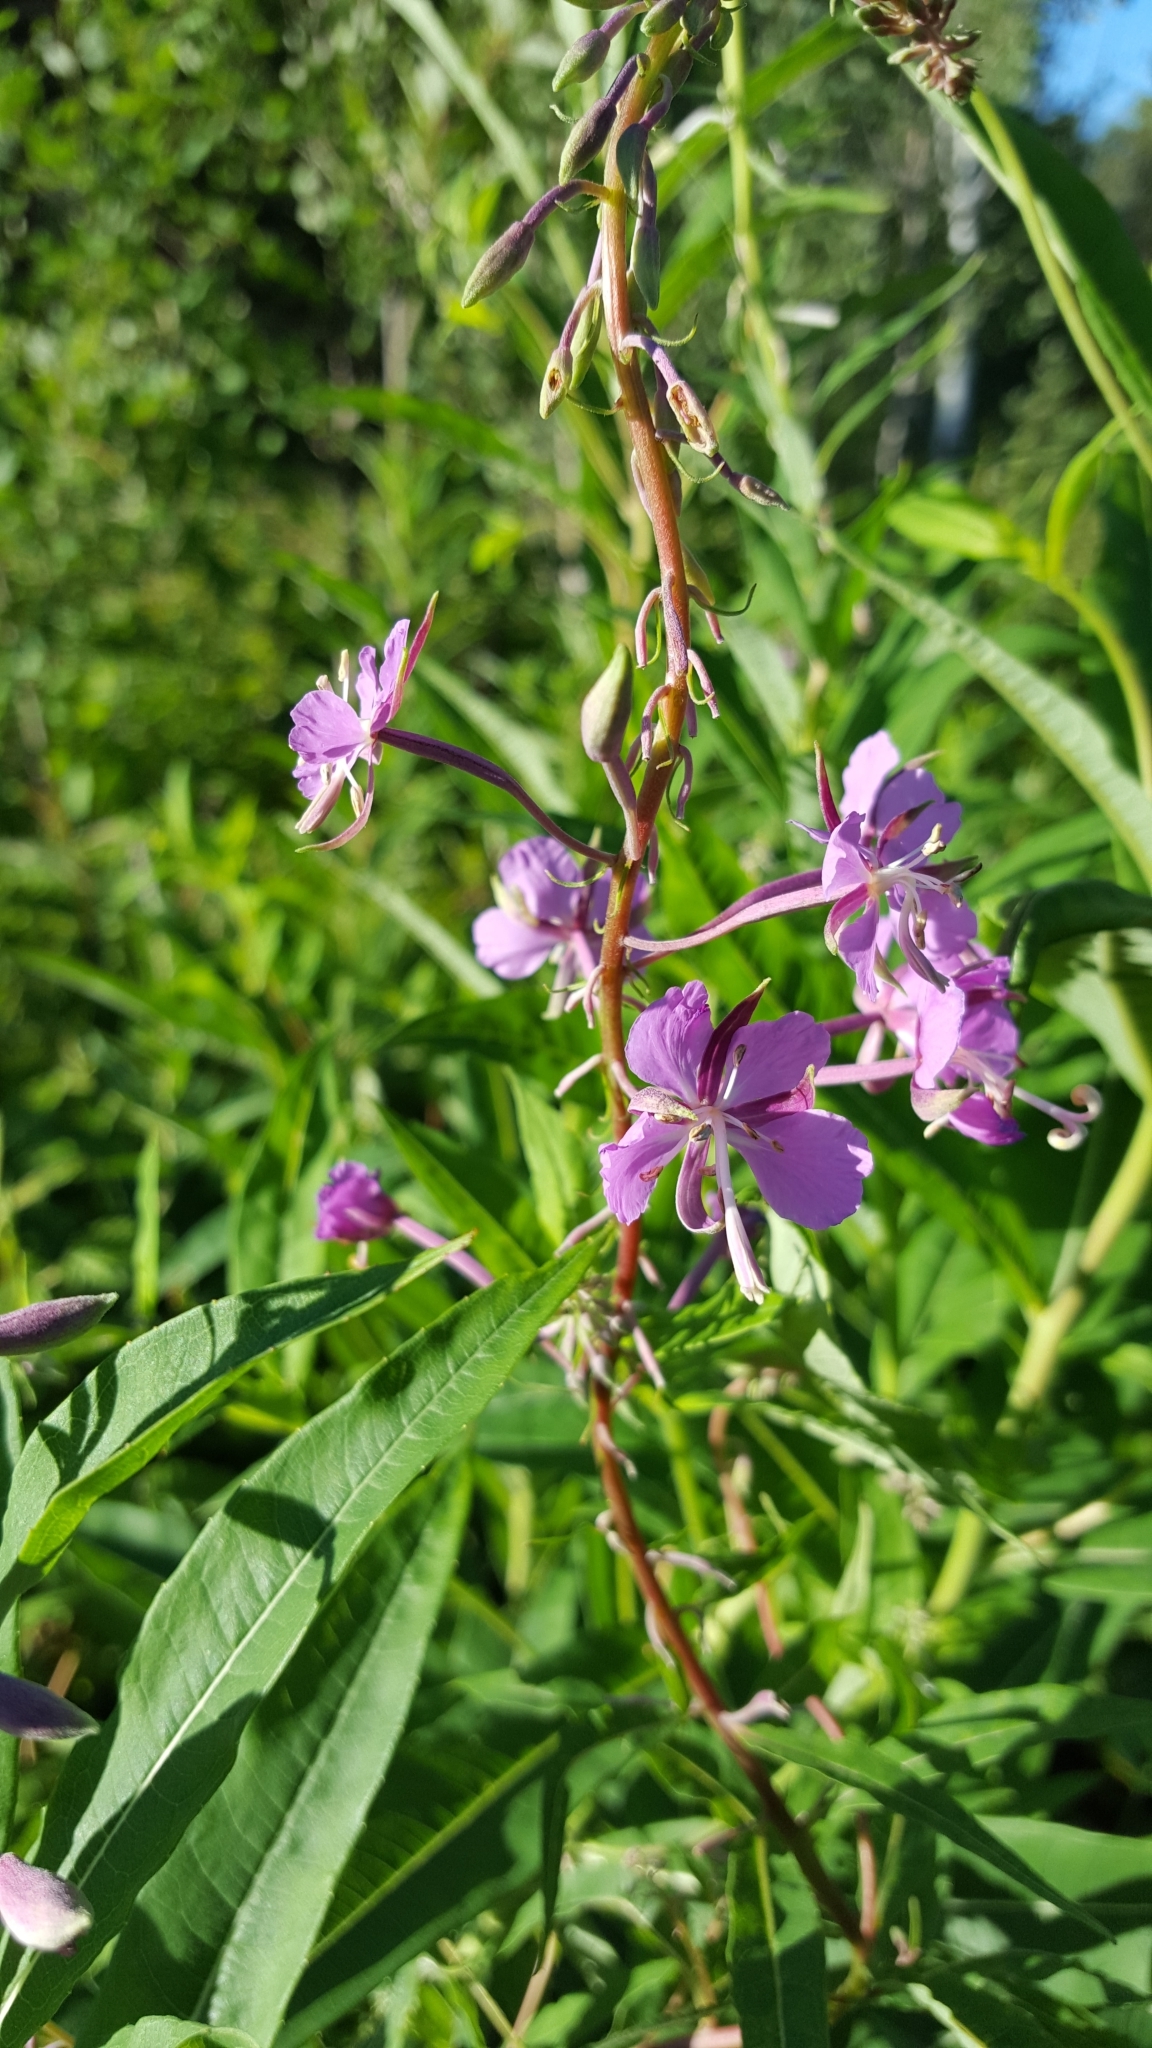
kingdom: Plantae
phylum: Tracheophyta
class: Magnoliopsida
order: Myrtales
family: Onagraceae
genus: Chamaenerion
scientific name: Chamaenerion angustifolium
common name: Fireweed
